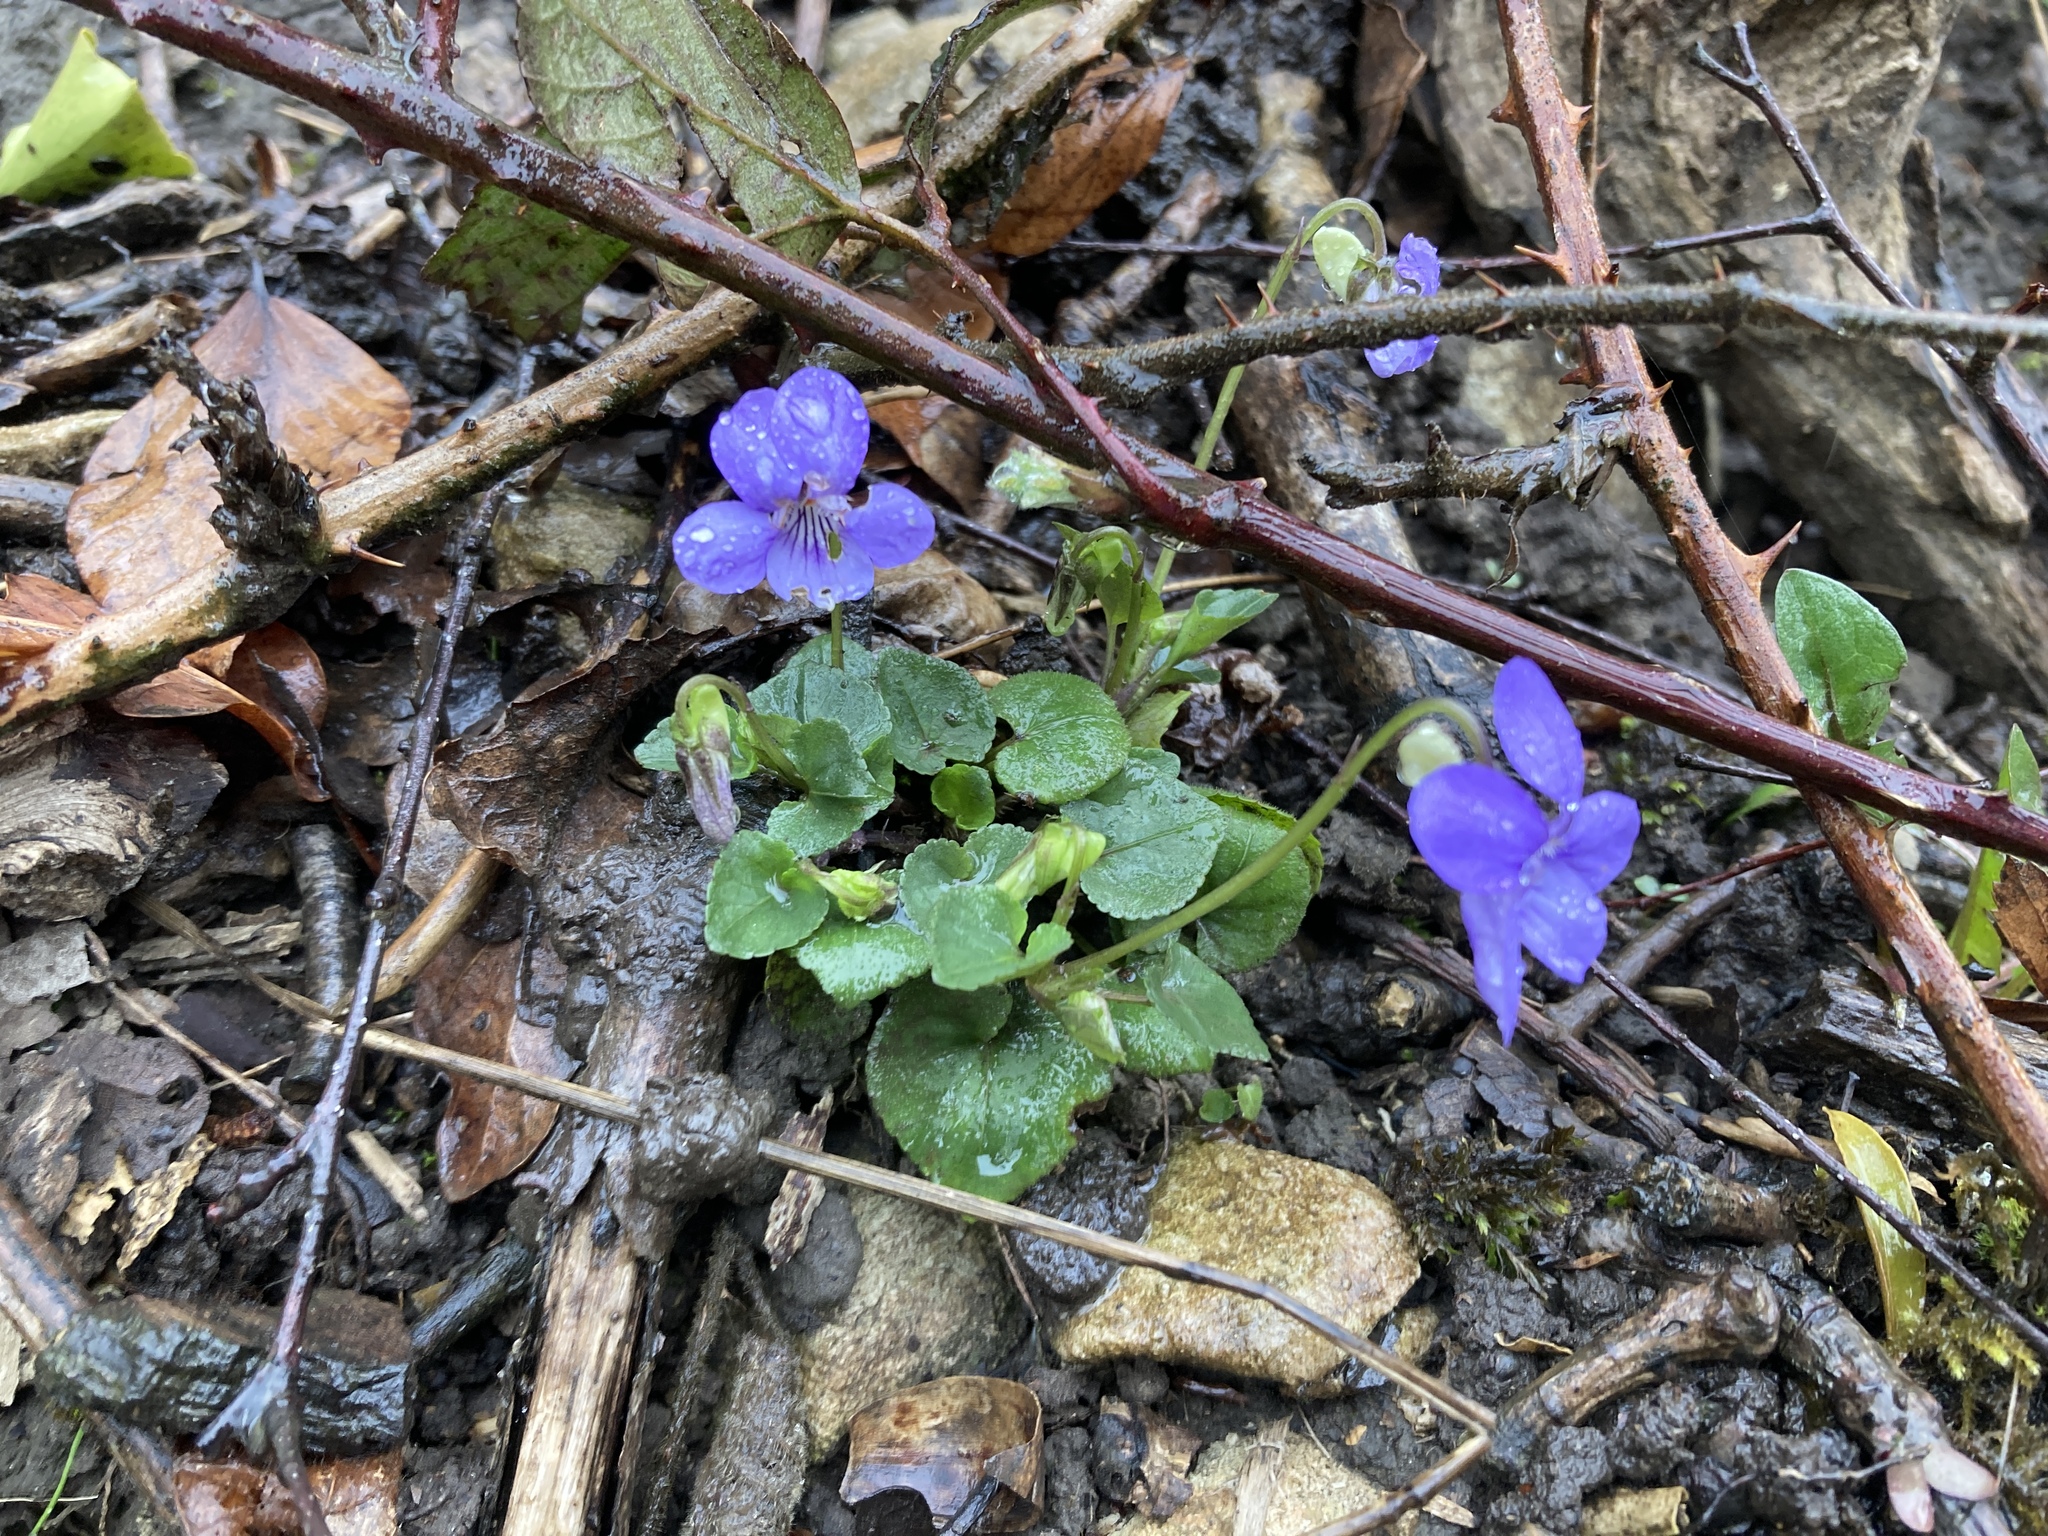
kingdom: Plantae
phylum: Tracheophyta
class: Magnoliopsida
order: Malpighiales
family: Violaceae
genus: Viola
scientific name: Viola riviniana
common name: Common dog-violet
